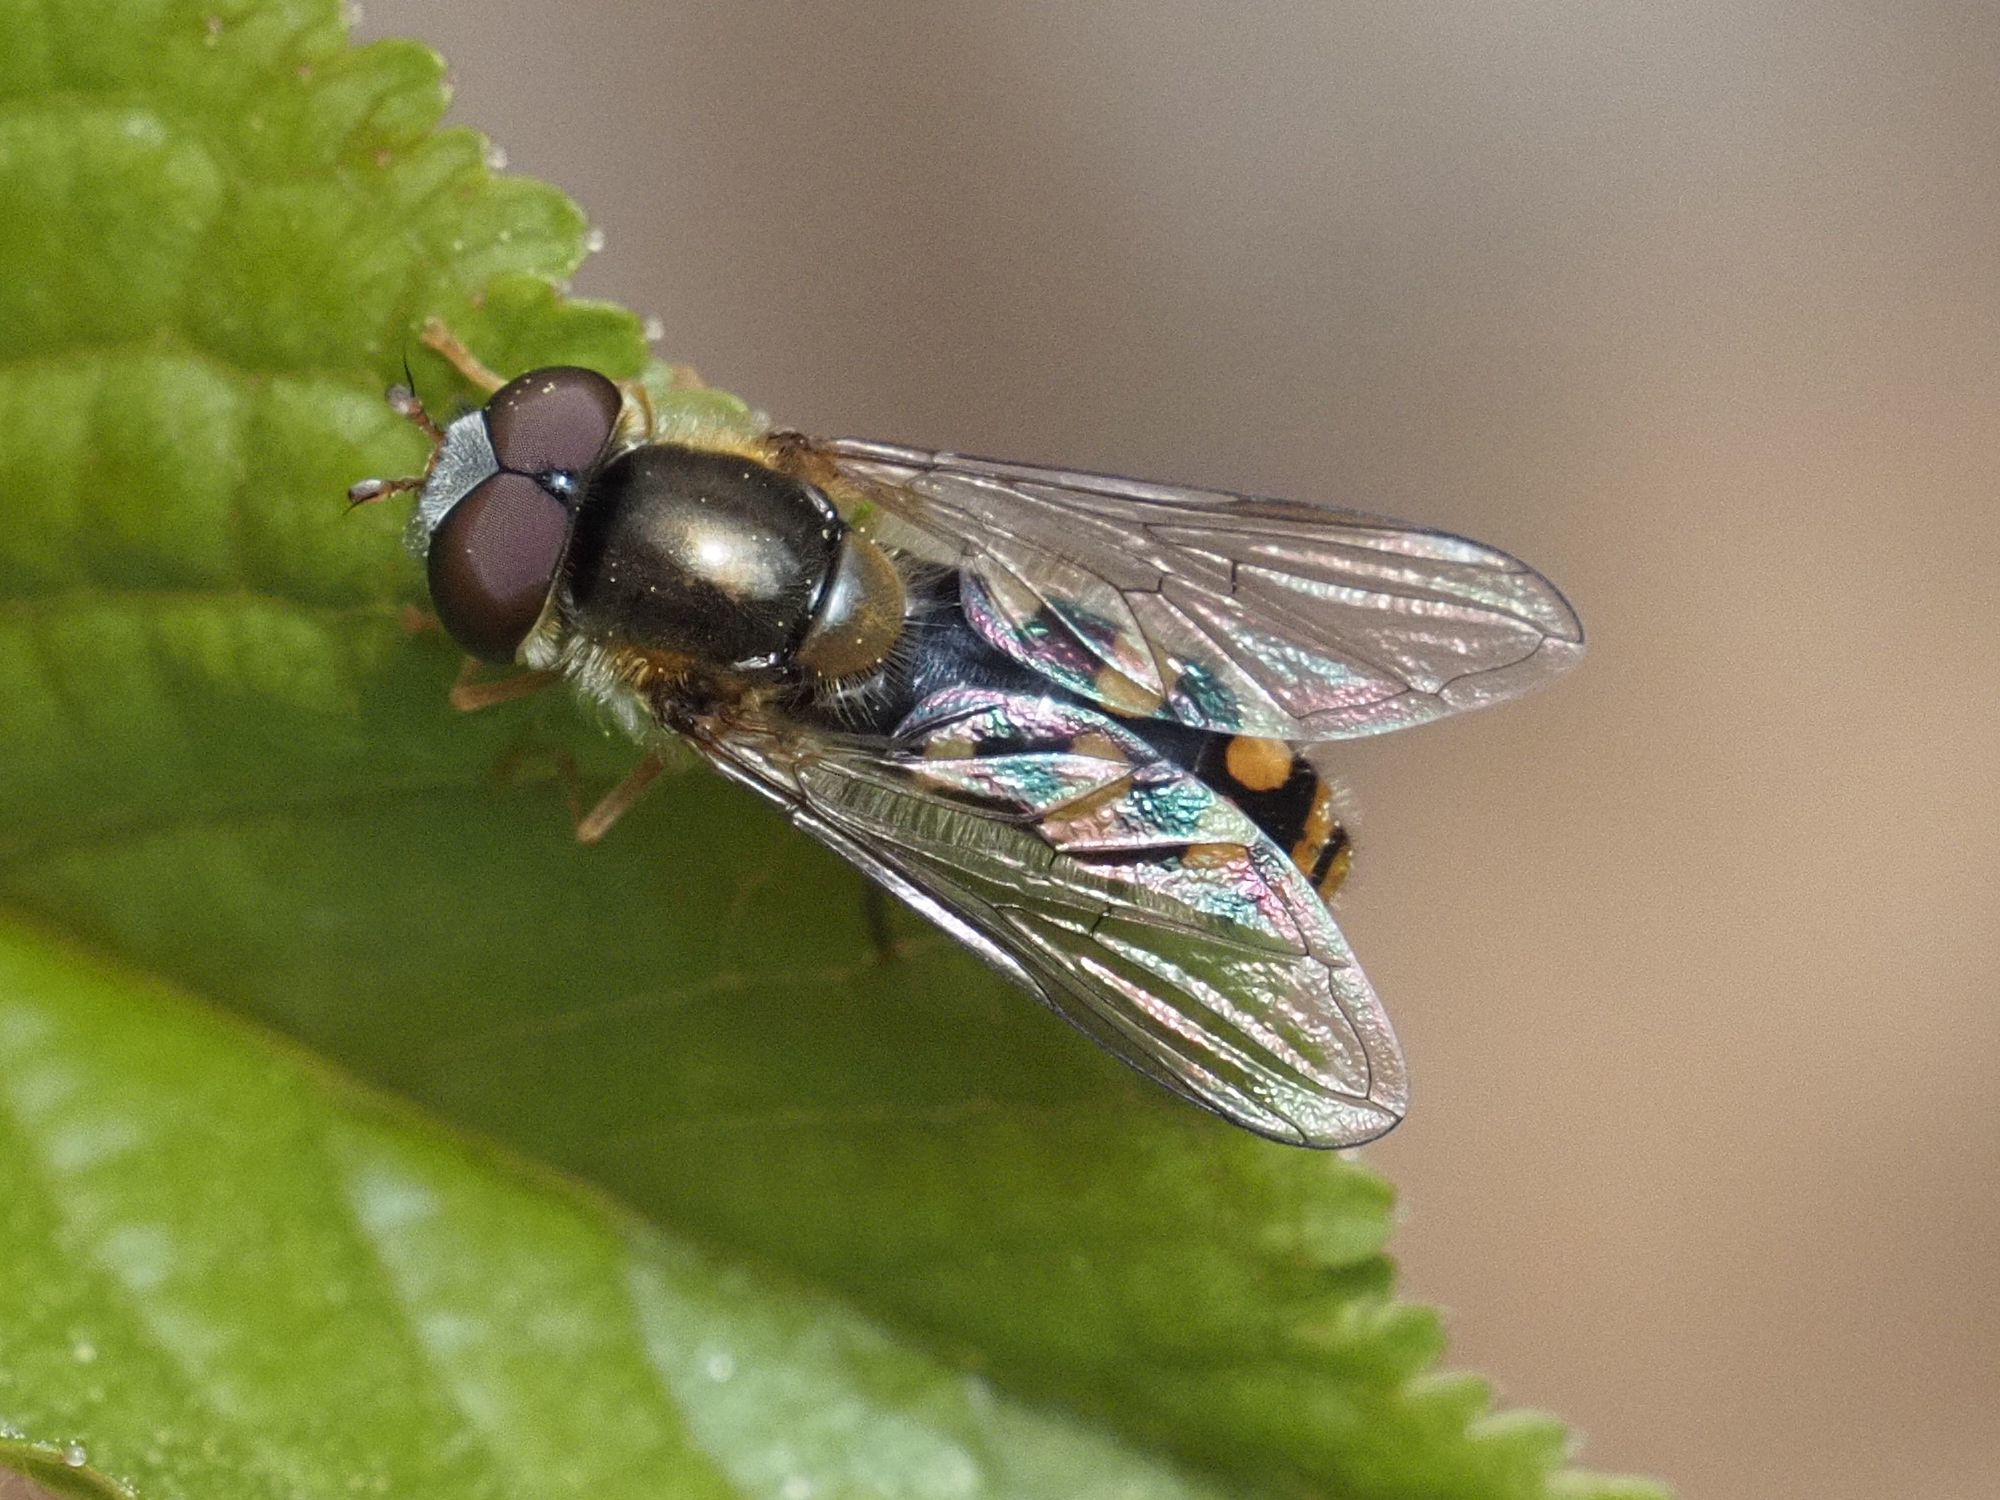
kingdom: Animalia
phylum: Arthropoda
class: Insecta
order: Diptera
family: Syrphidae
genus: Epistrophella
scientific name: Epistrophella euchromus
